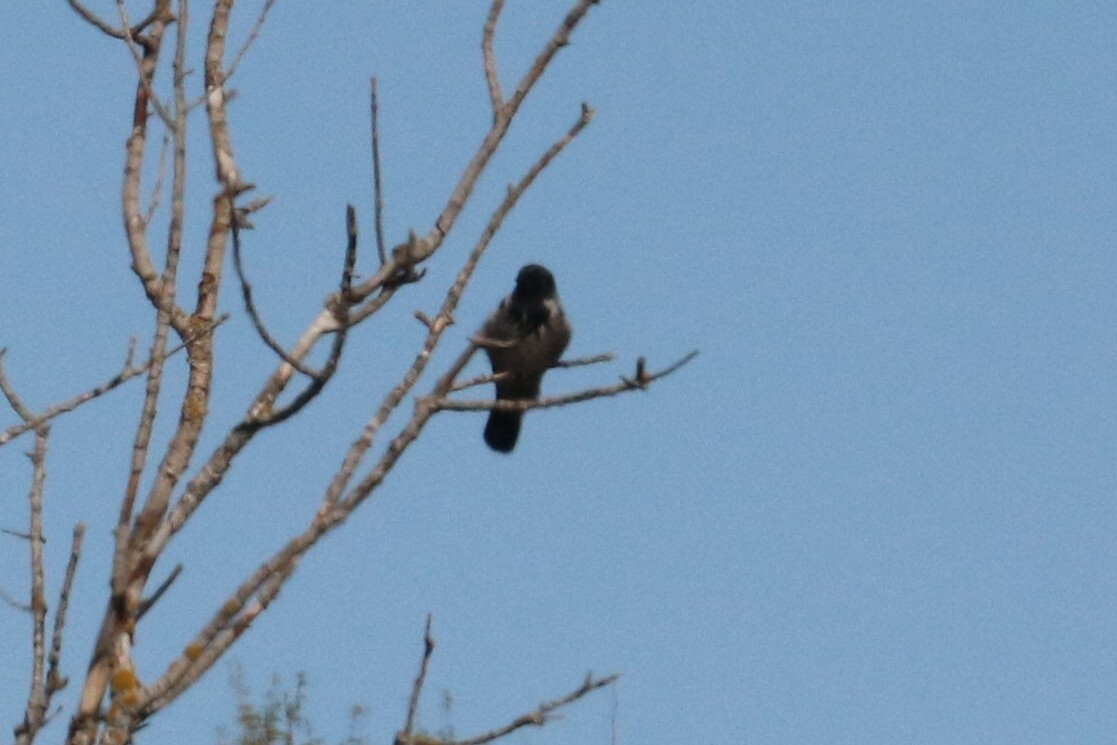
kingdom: Animalia
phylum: Chordata
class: Aves
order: Passeriformes
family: Corvidae
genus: Corvus
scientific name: Corvus cornix
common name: Hooded crow
